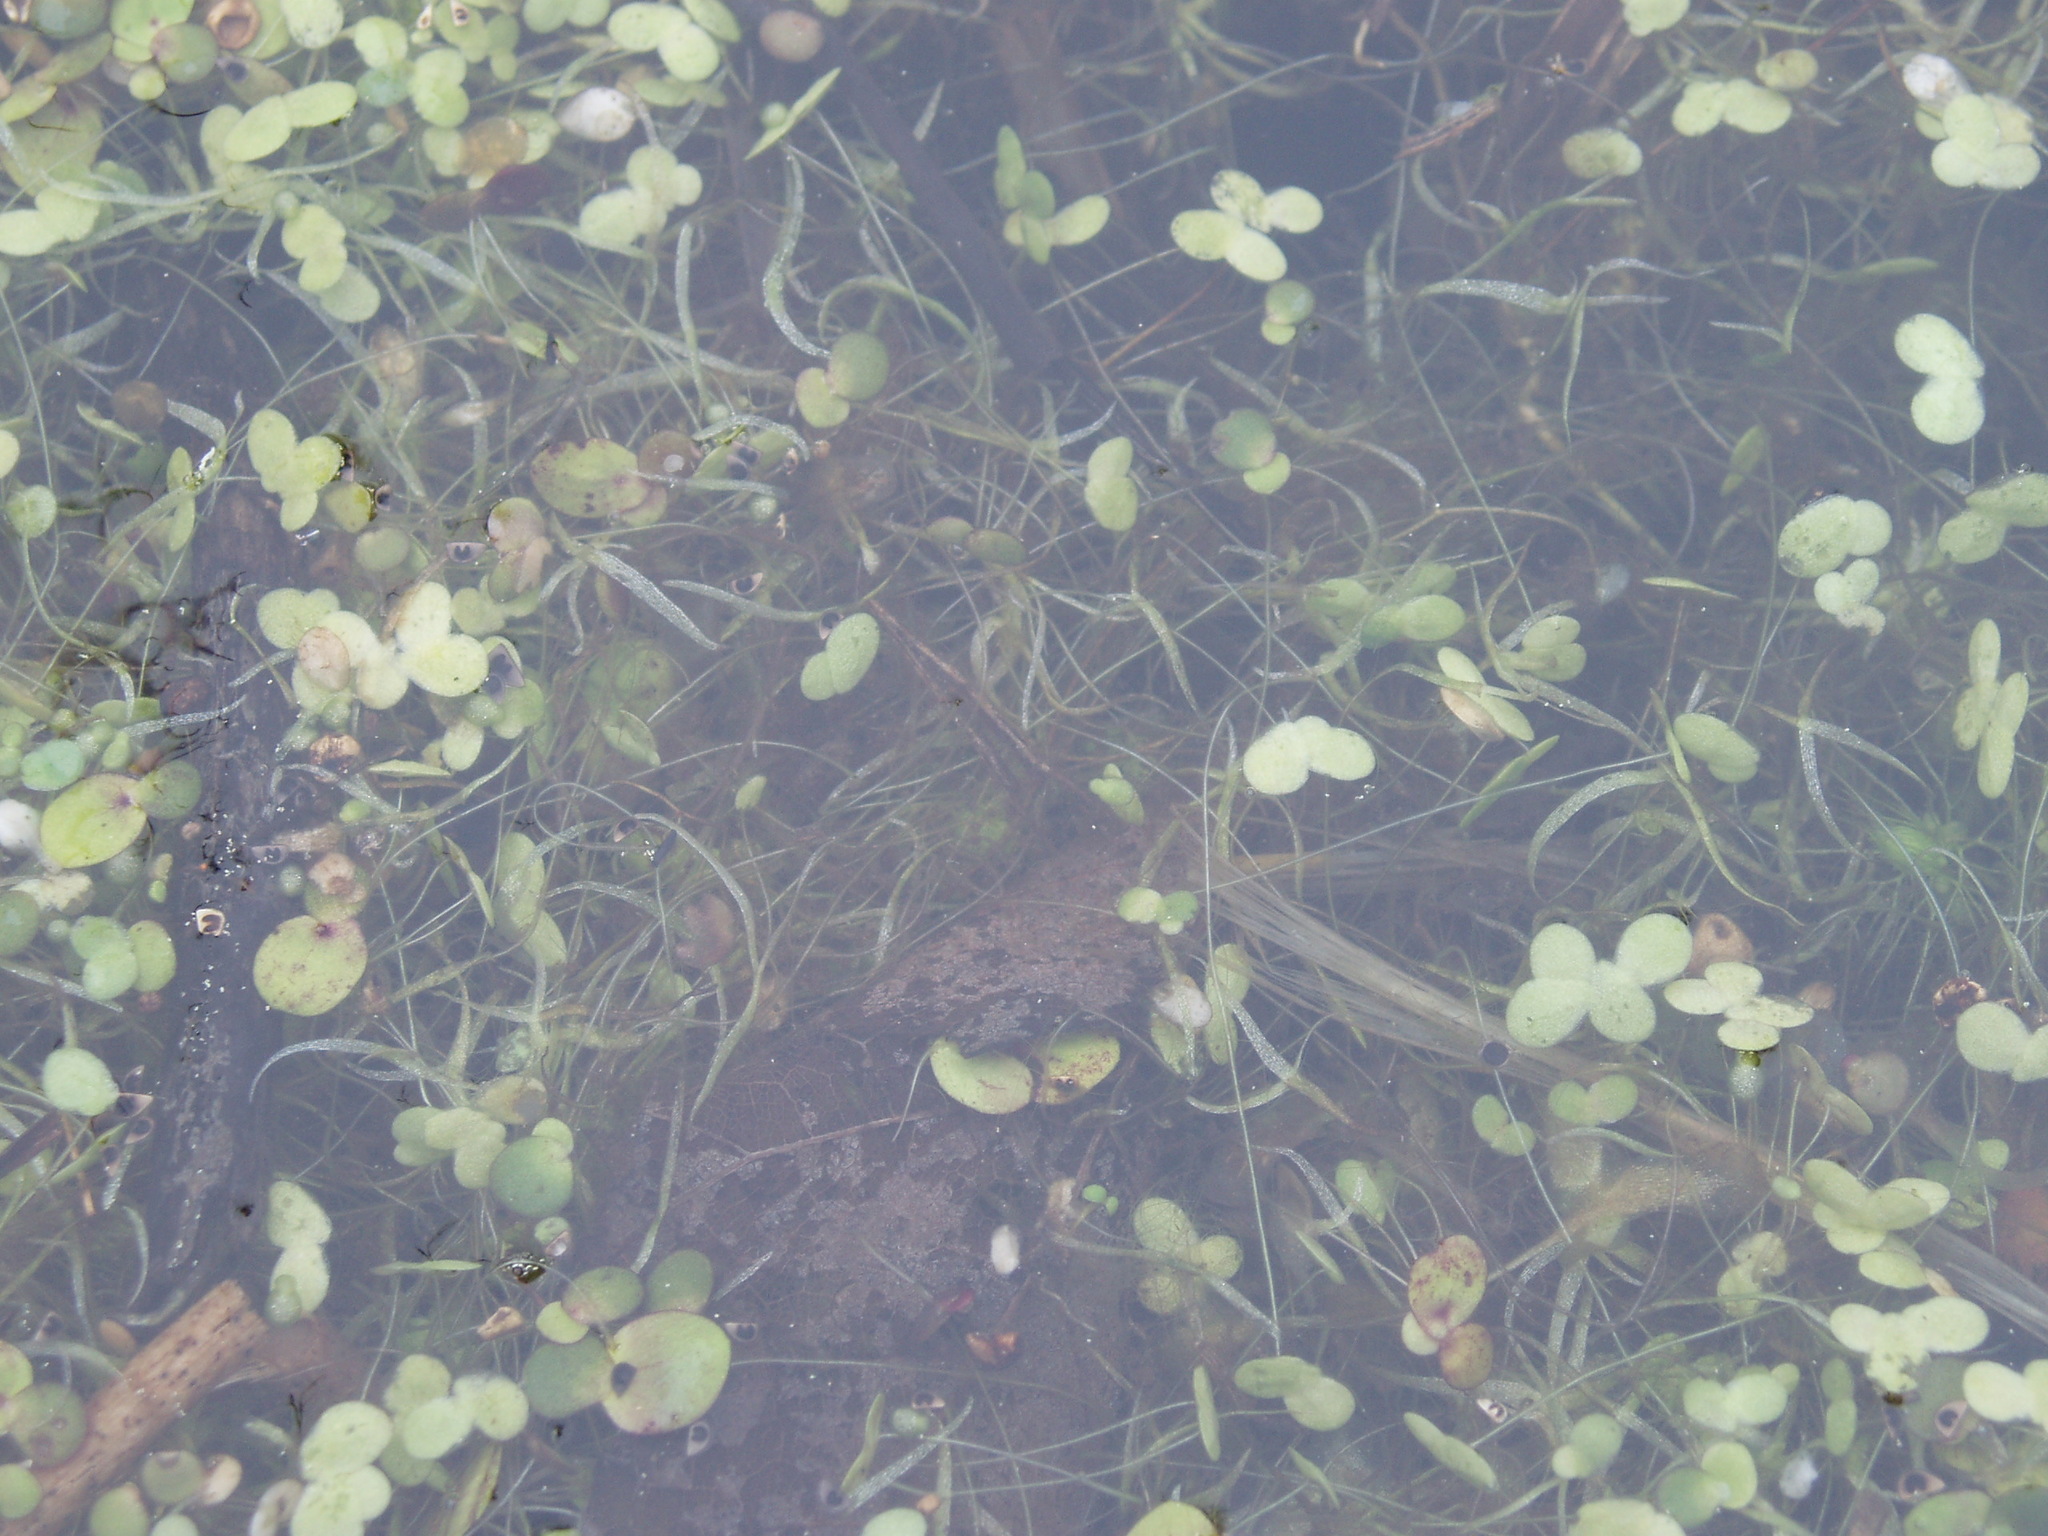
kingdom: Plantae
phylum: Tracheophyta
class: Liliopsida
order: Alismatales
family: Araceae
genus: Spirodela
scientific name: Spirodela polyrhiza
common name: Great duckweed
